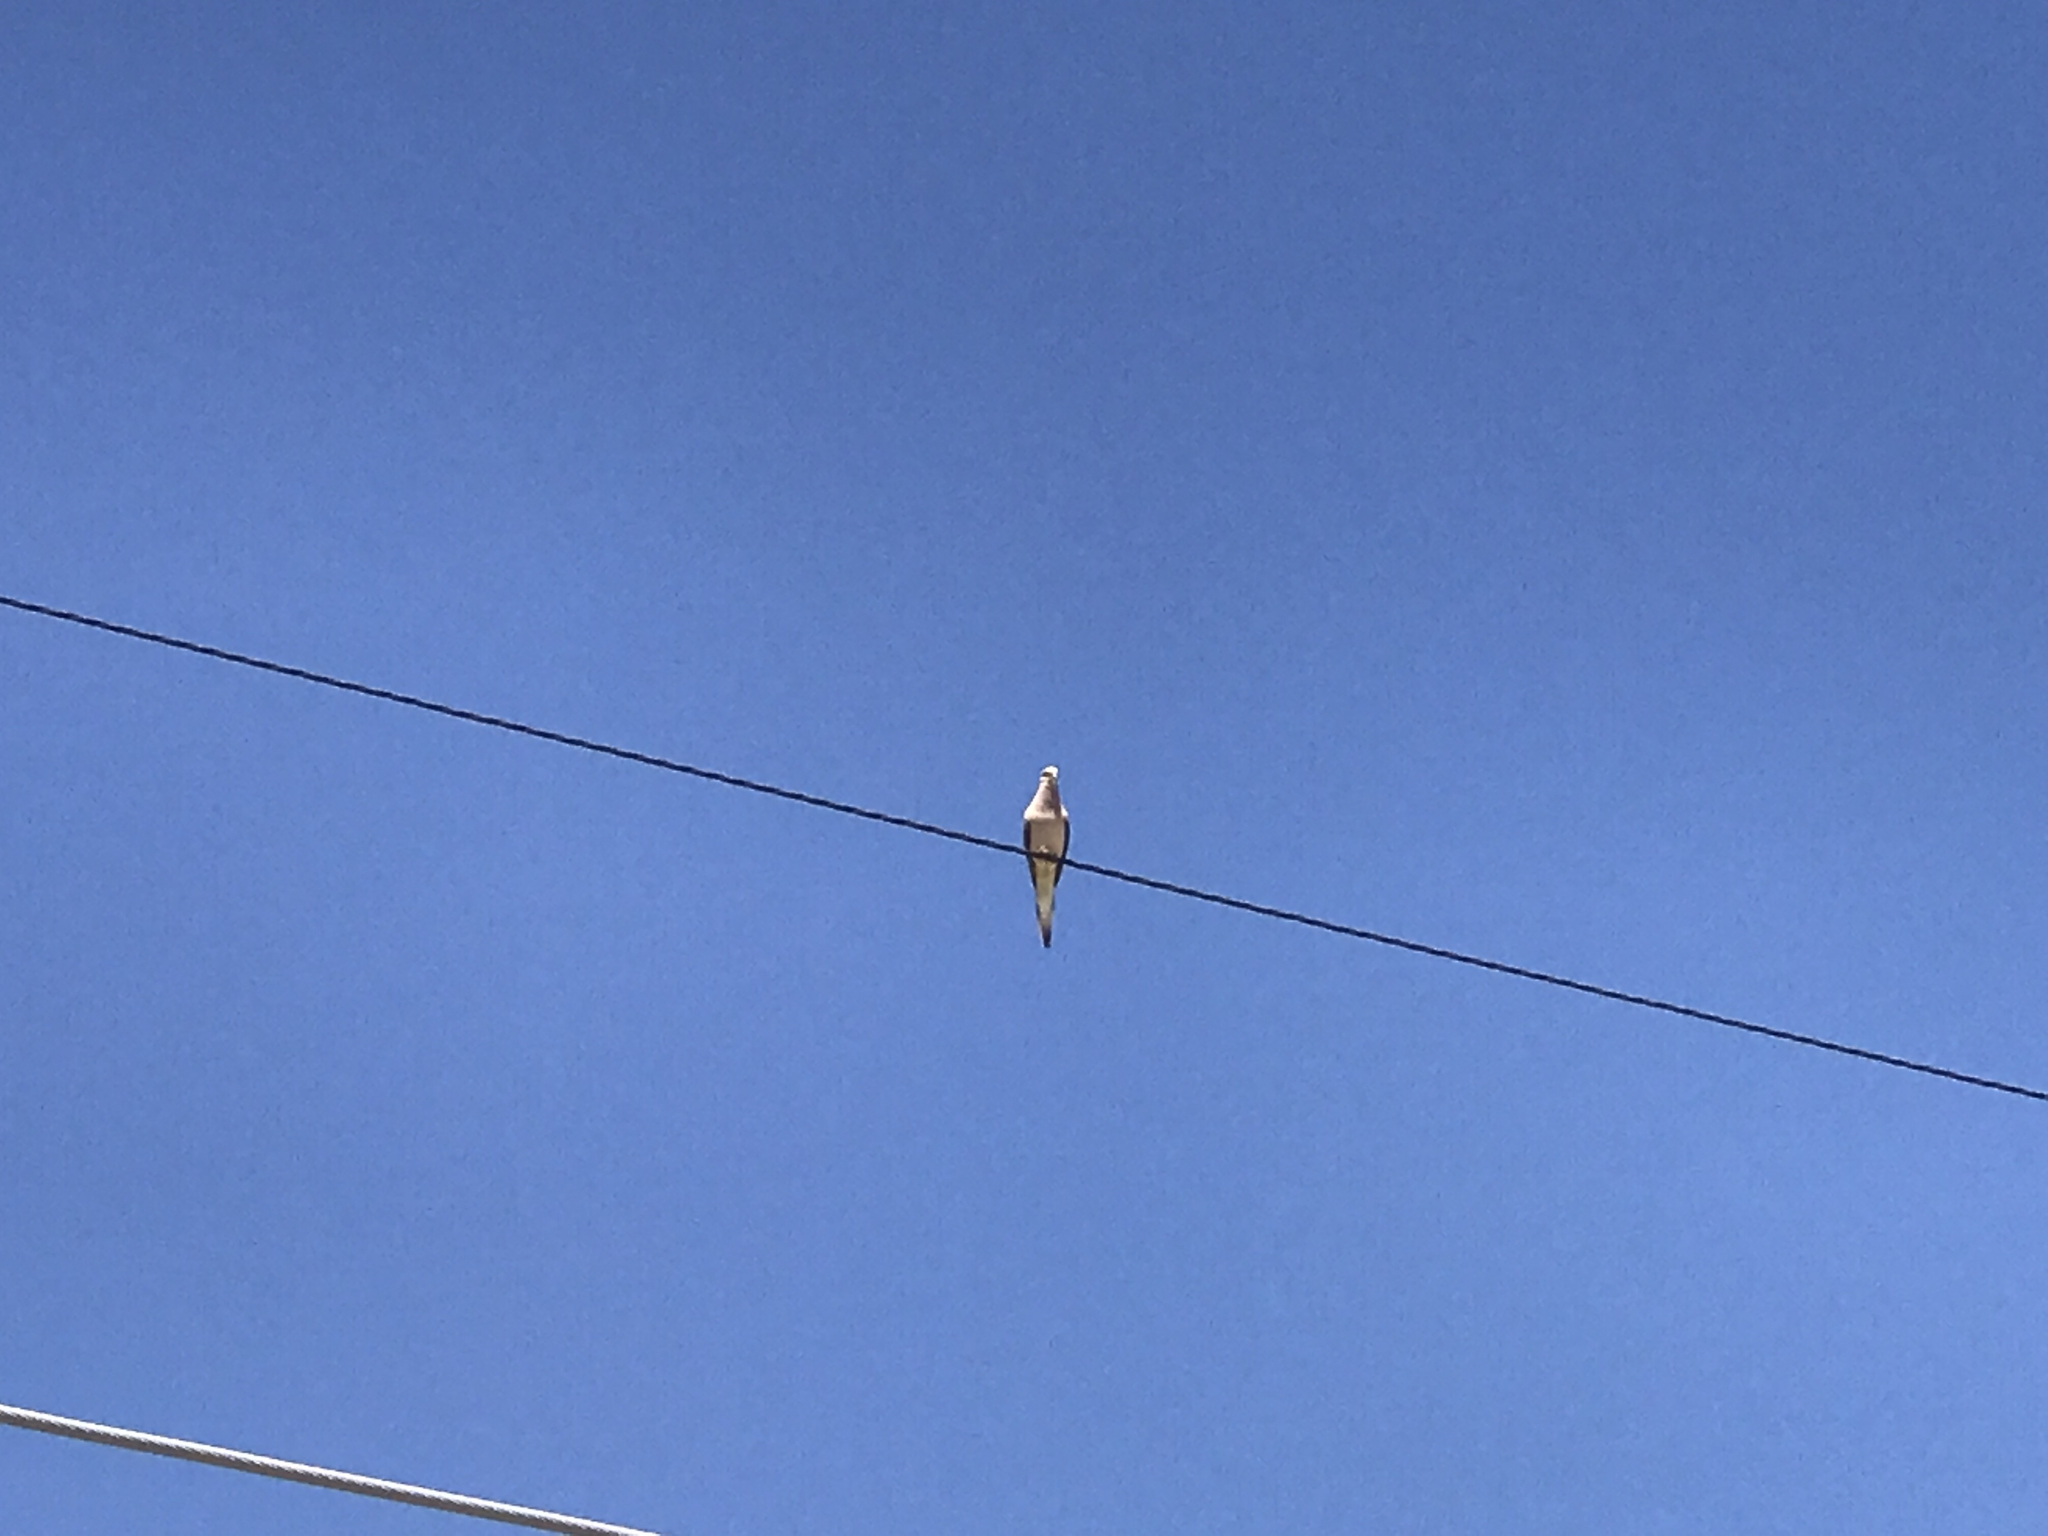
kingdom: Animalia
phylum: Chordata
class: Aves
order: Columbiformes
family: Columbidae
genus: Zenaida
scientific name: Zenaida macroura
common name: Mourning dove
